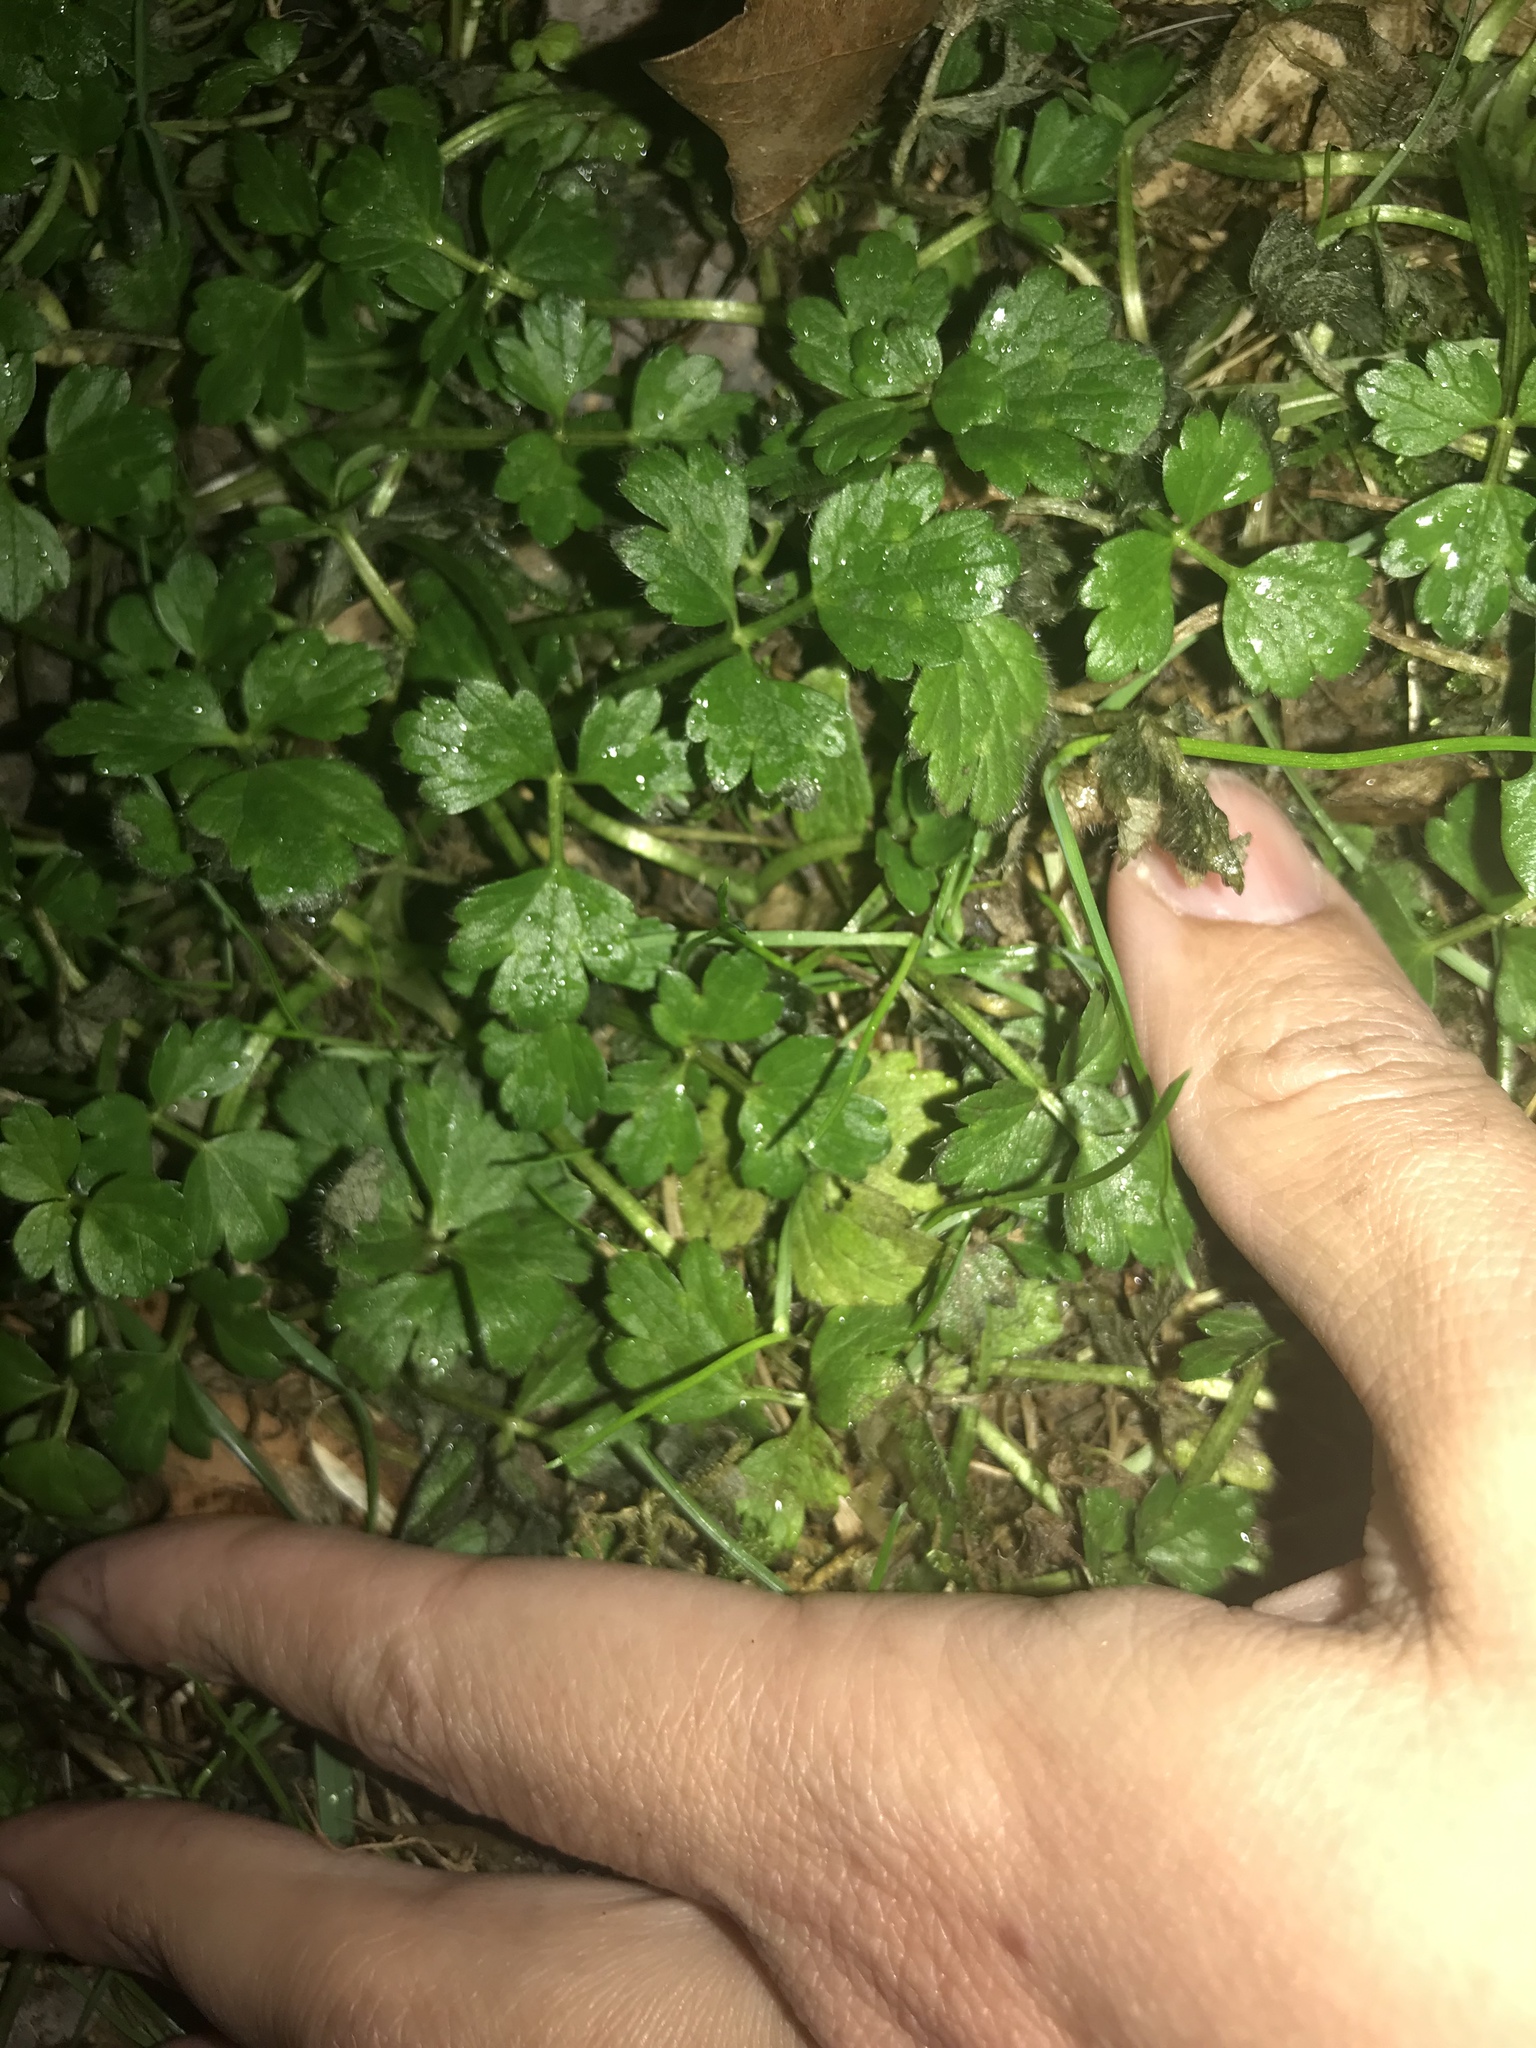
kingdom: Plantae
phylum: Tracheophyta
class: Magnoliopsida
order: Ranunculales
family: Ranunculaceae
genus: Ranunculus
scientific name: Ranunculus repens
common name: Creeping buttercup
